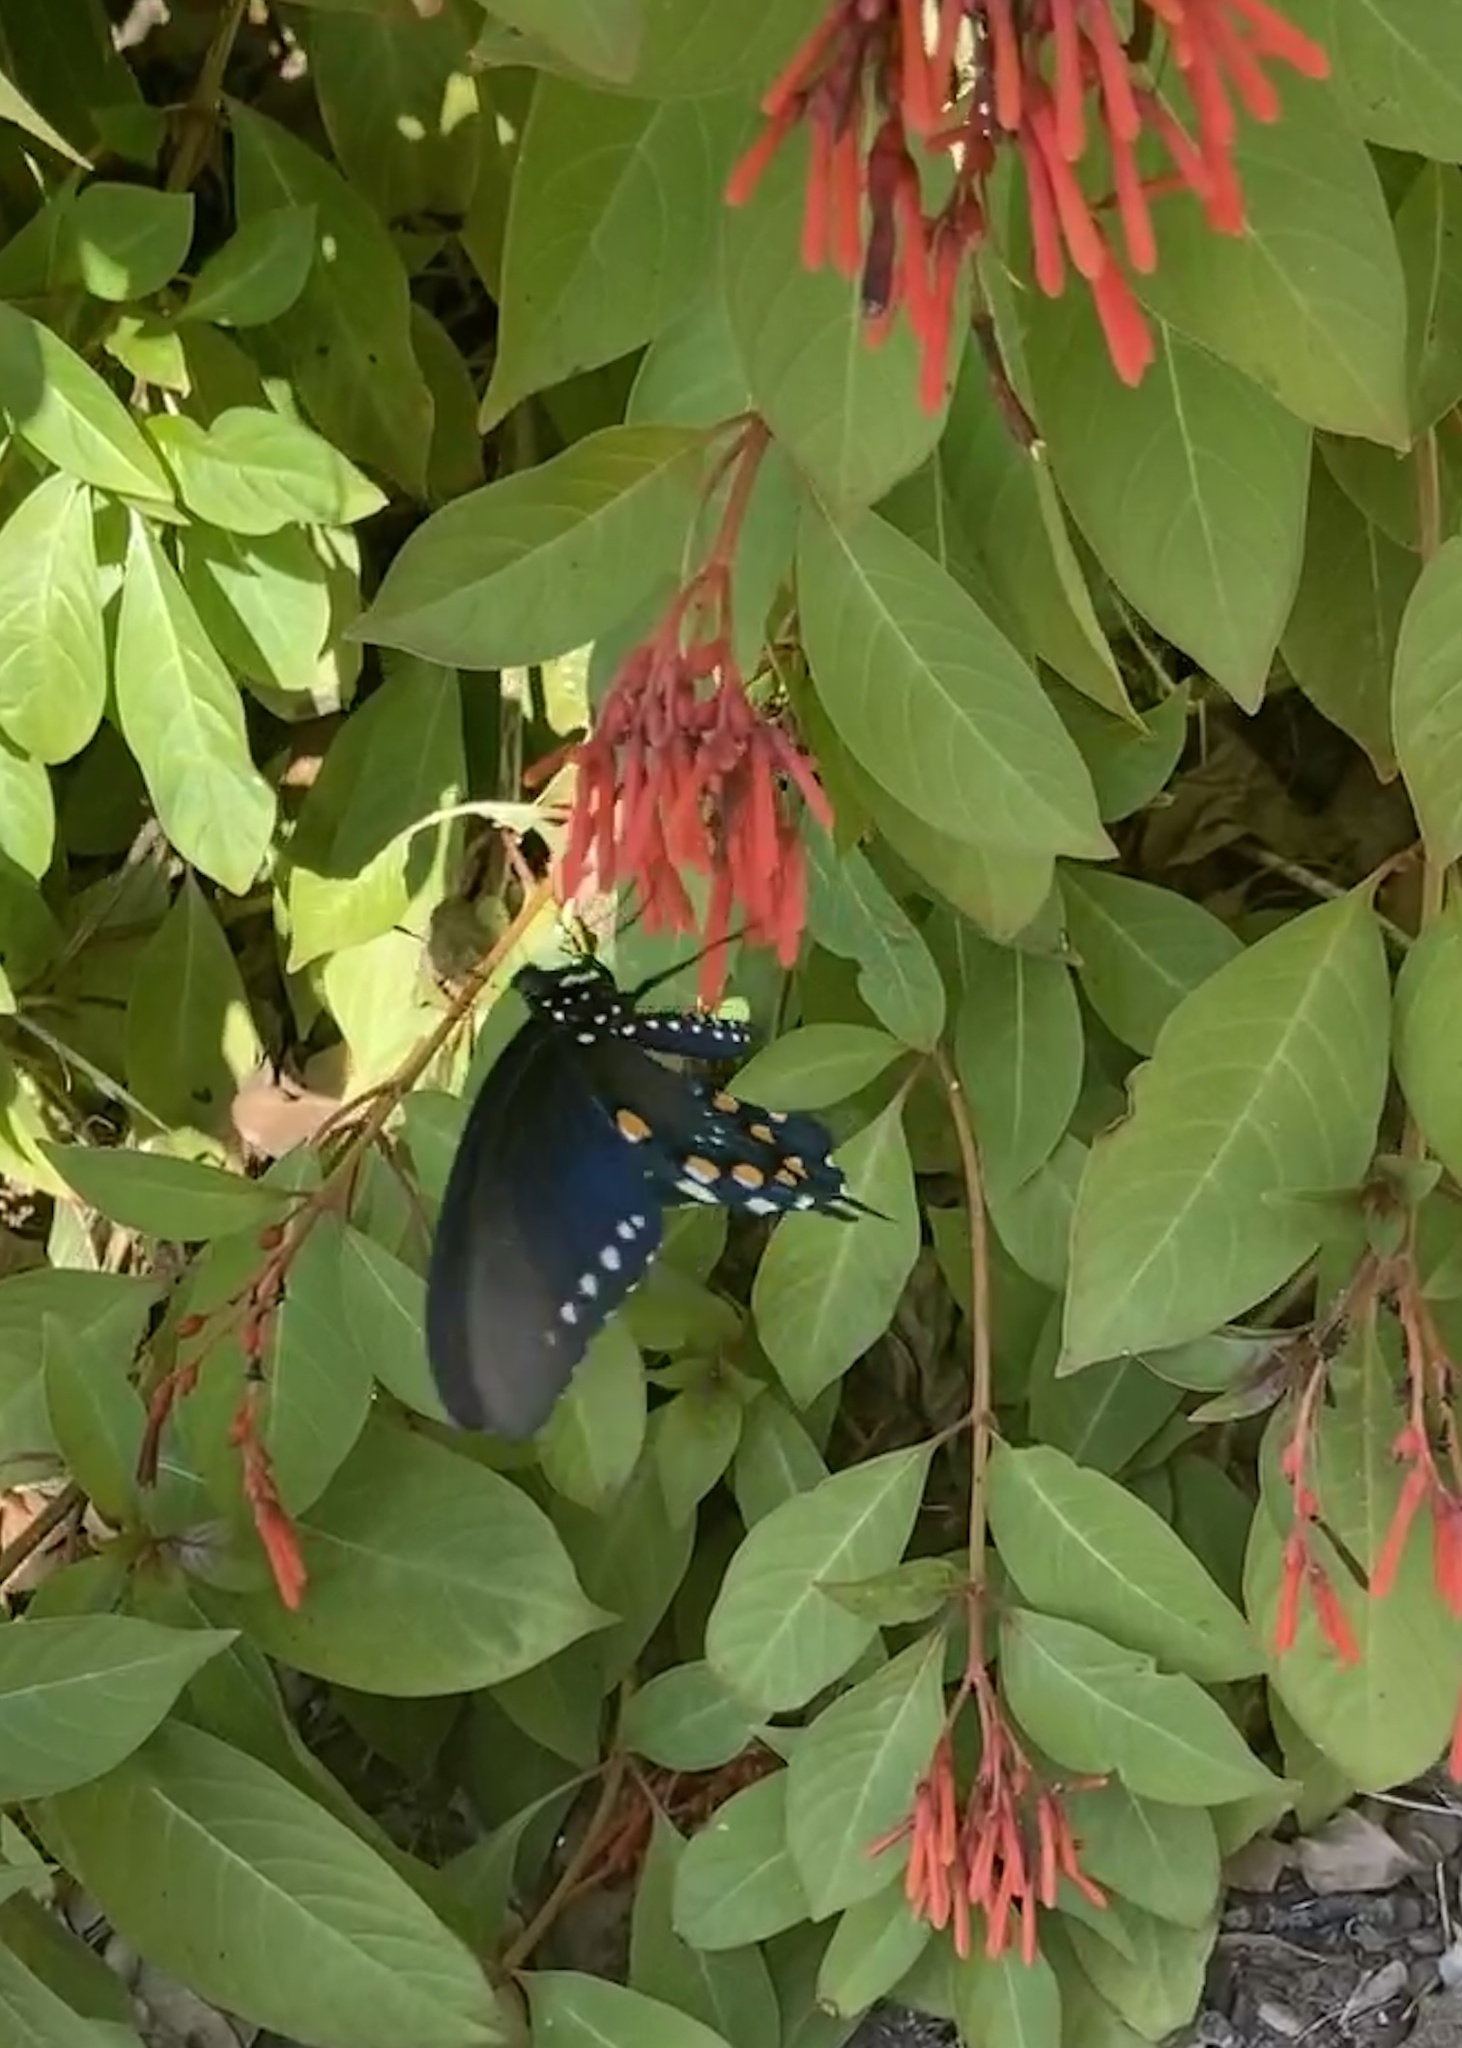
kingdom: Animalia
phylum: Arthropoda
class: Insecta
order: Lepidoptera
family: Papilionidae
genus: Battus
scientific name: Battus philenor
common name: Pipevine swallowtail
